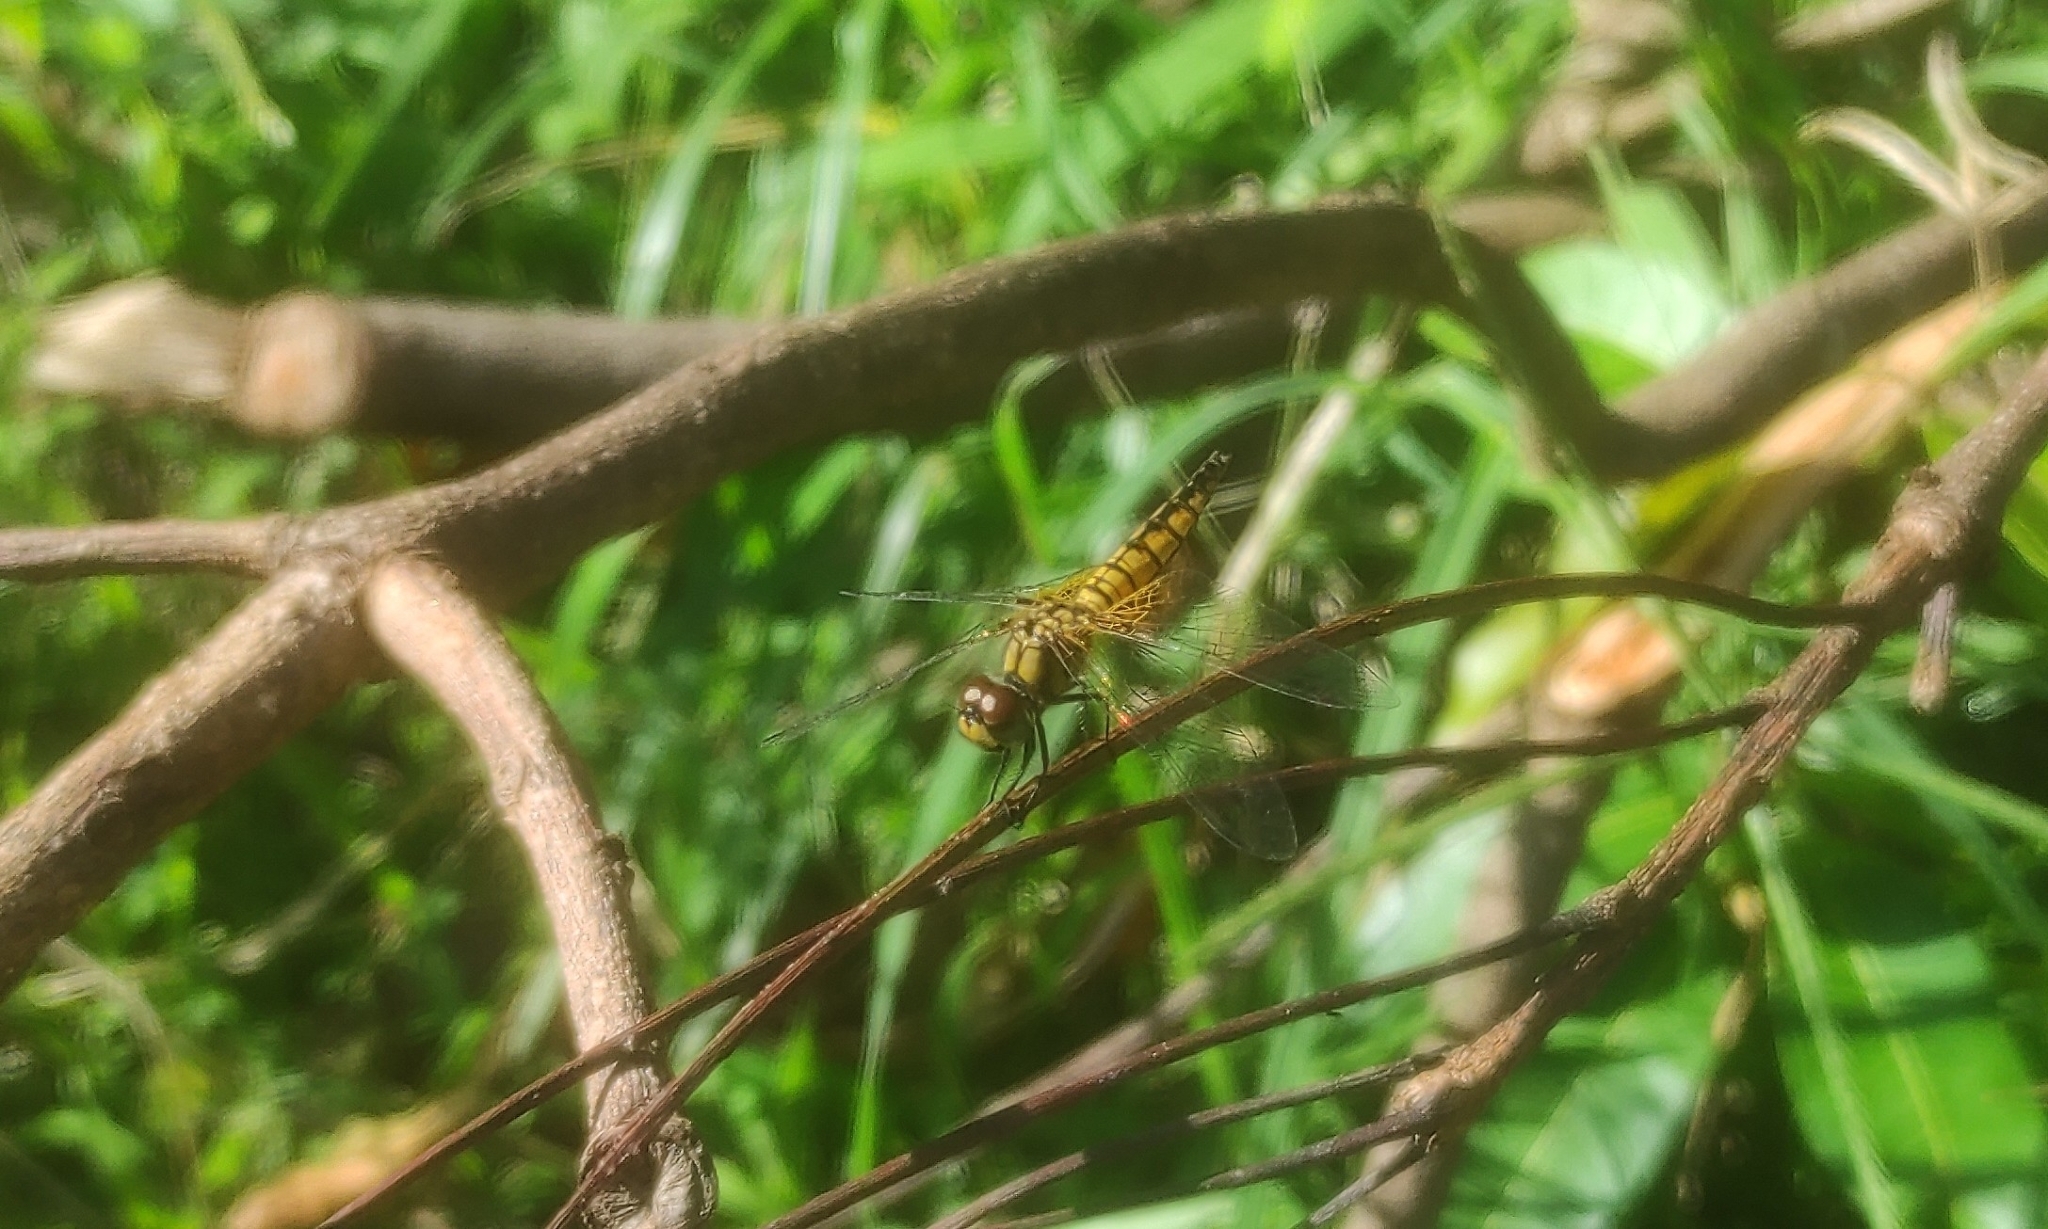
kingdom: Animalia
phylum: Arthropoda
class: Insecta
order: Odonata
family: Libellulidae
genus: Aethriamanta
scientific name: Aethriamanta brevipennis
